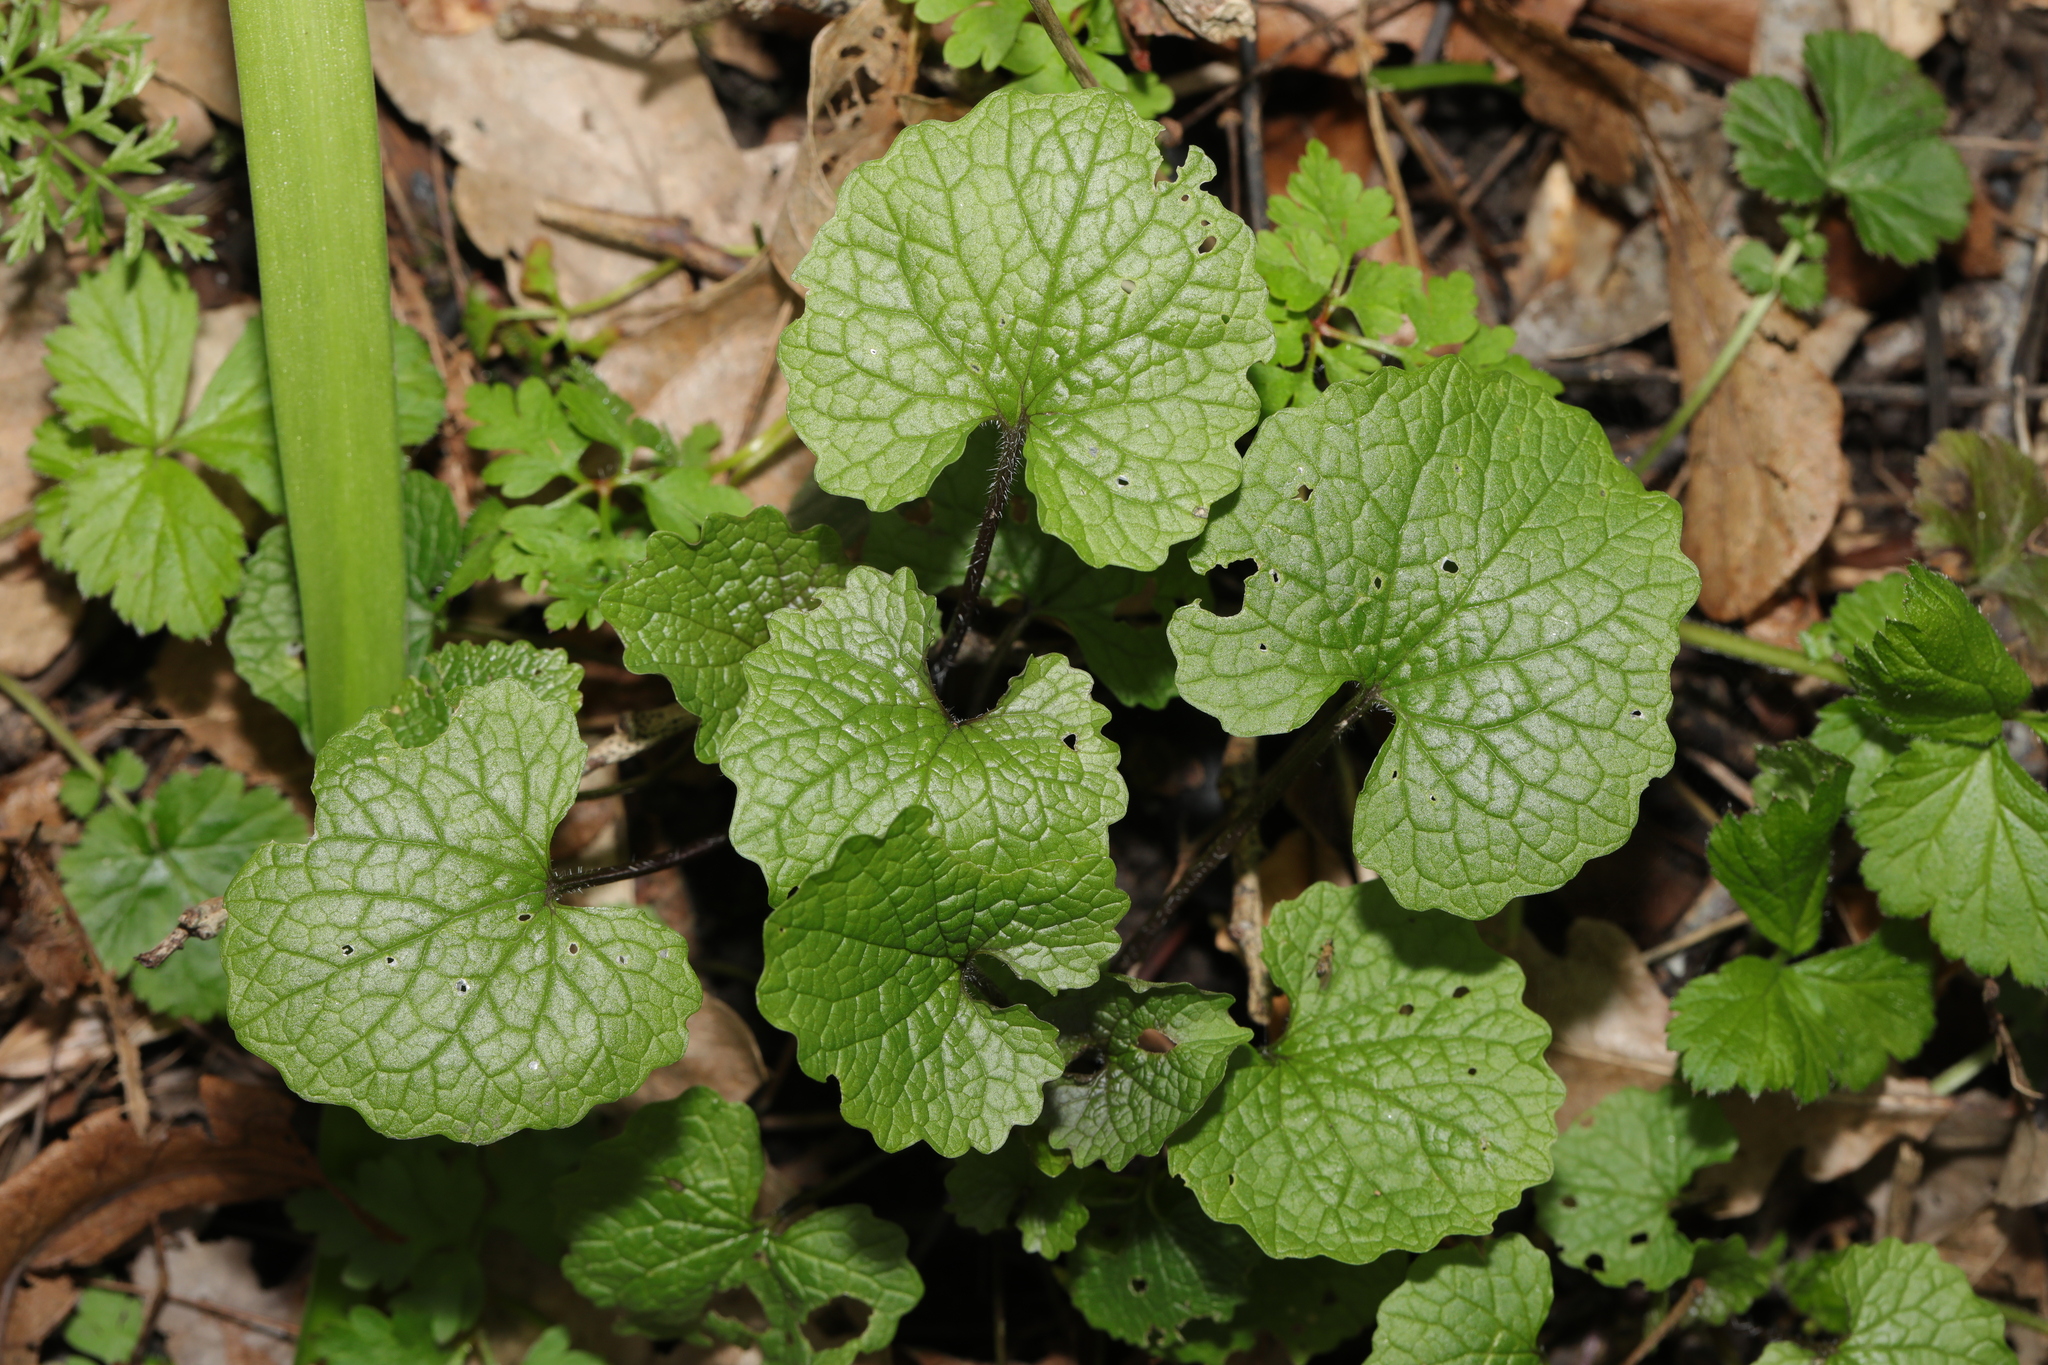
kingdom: Plantae
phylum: Tracheophyta
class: Magnoliopsida
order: Brassicales
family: Brassicaceae
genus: Alliaria
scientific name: Alliaria petiolata
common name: Garlic mustard
